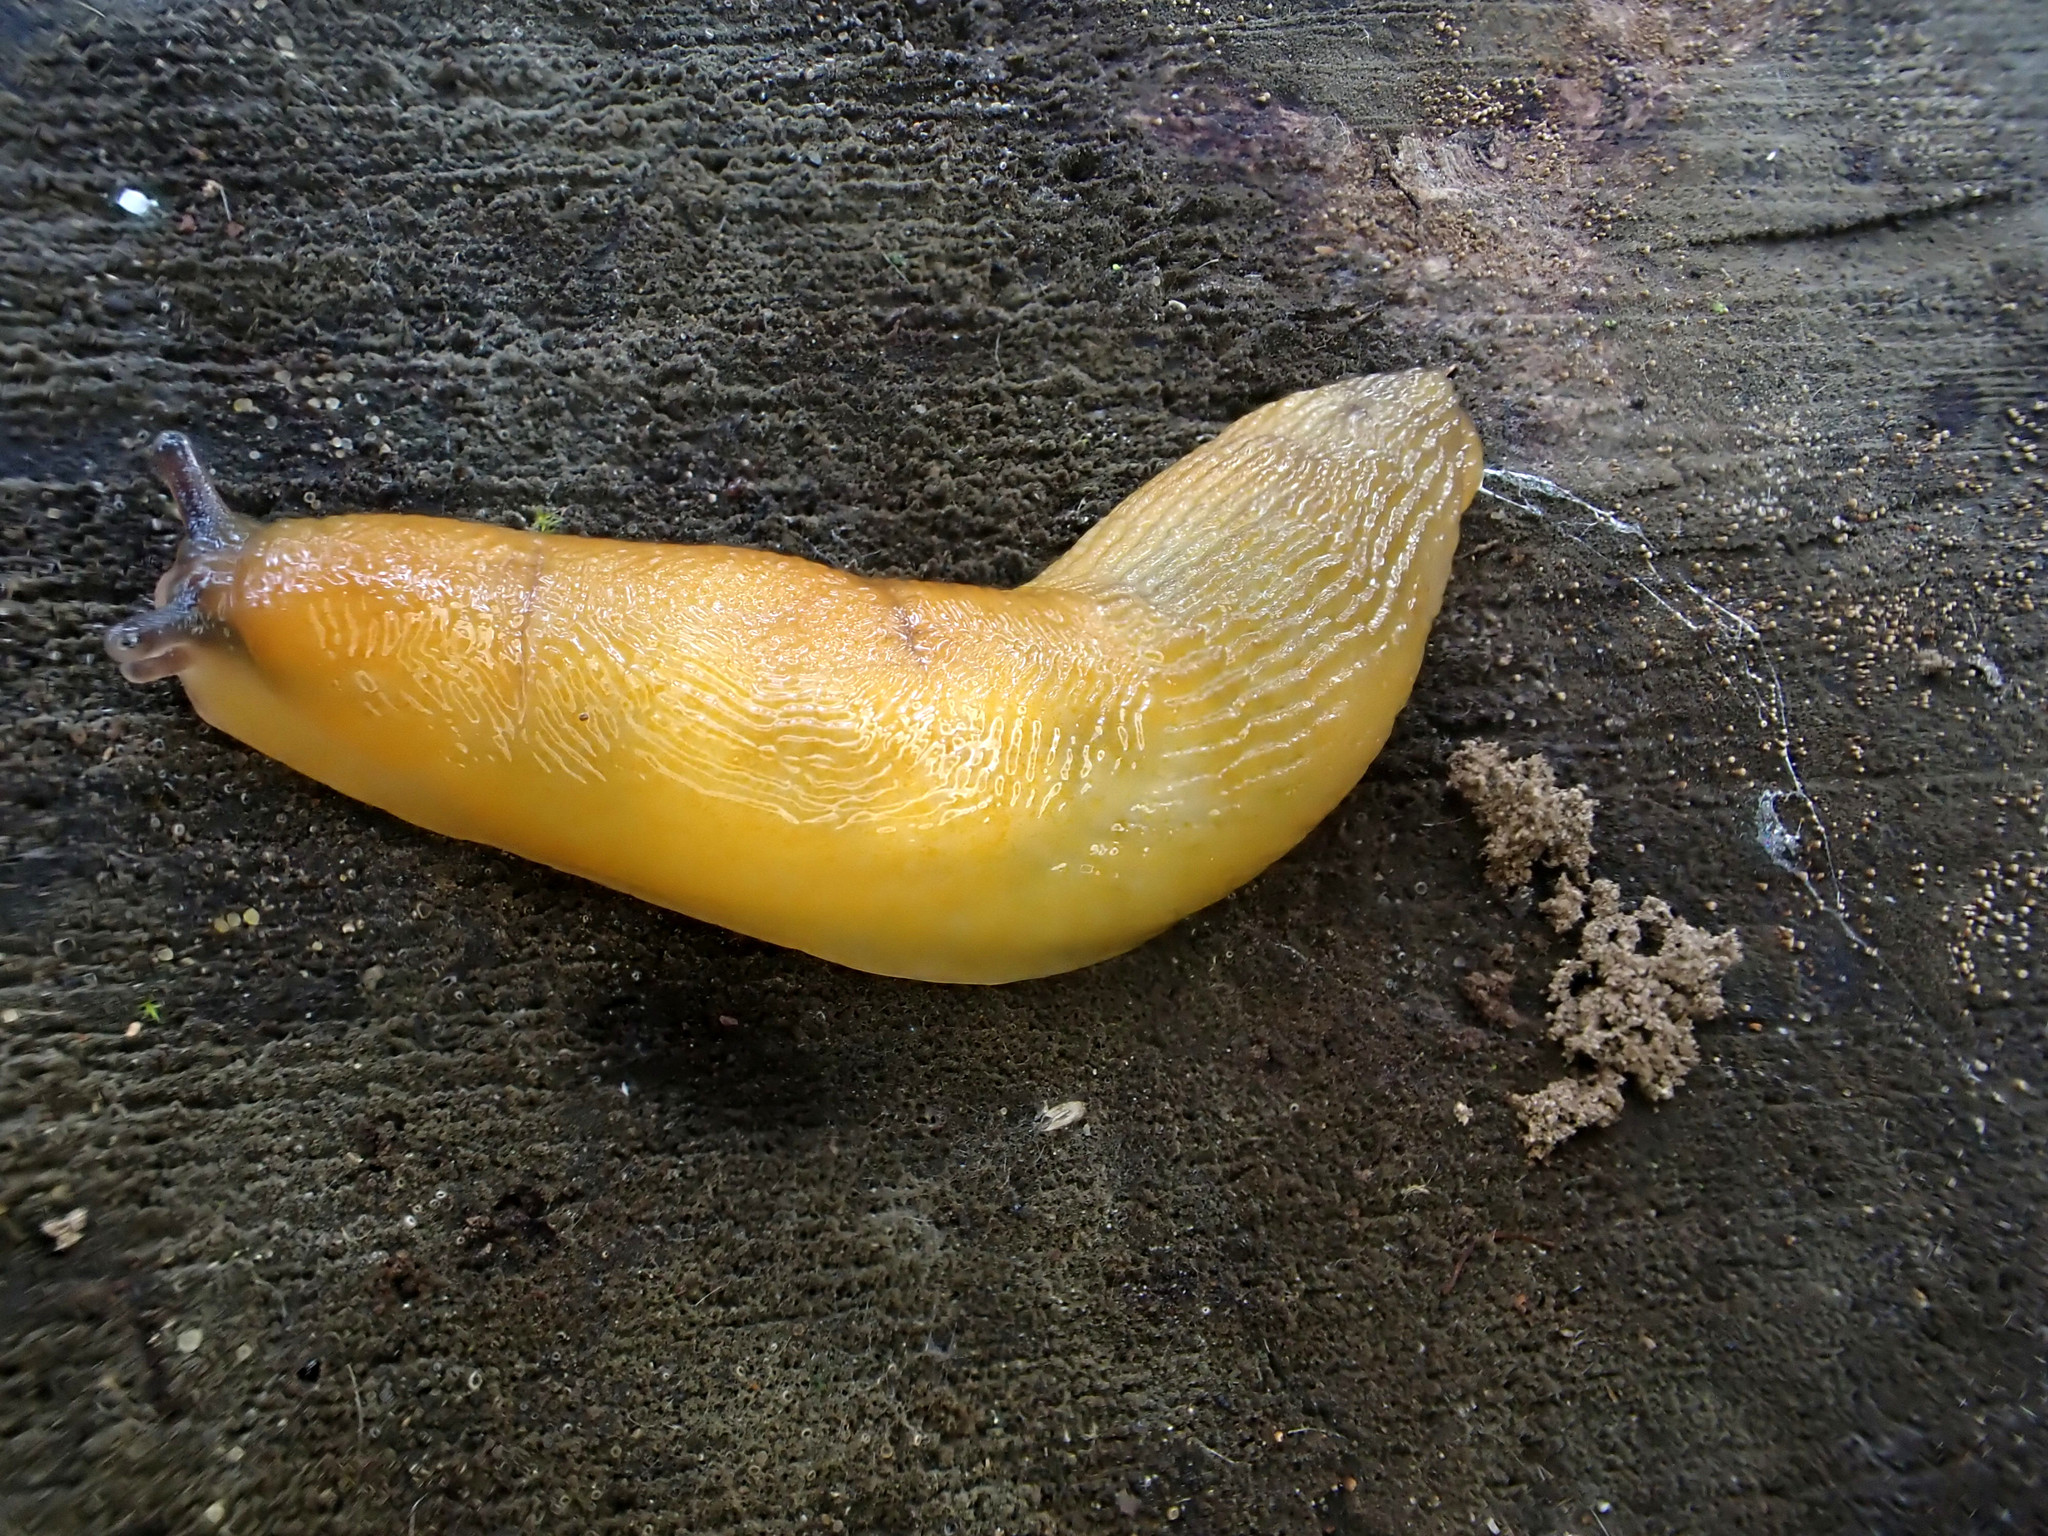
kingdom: Animalia
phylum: Mollusca
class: Gastropoda
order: Stylommatophora
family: Limacidae
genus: Malacolimax
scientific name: Malacolimax tenellus
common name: Lemon slug
